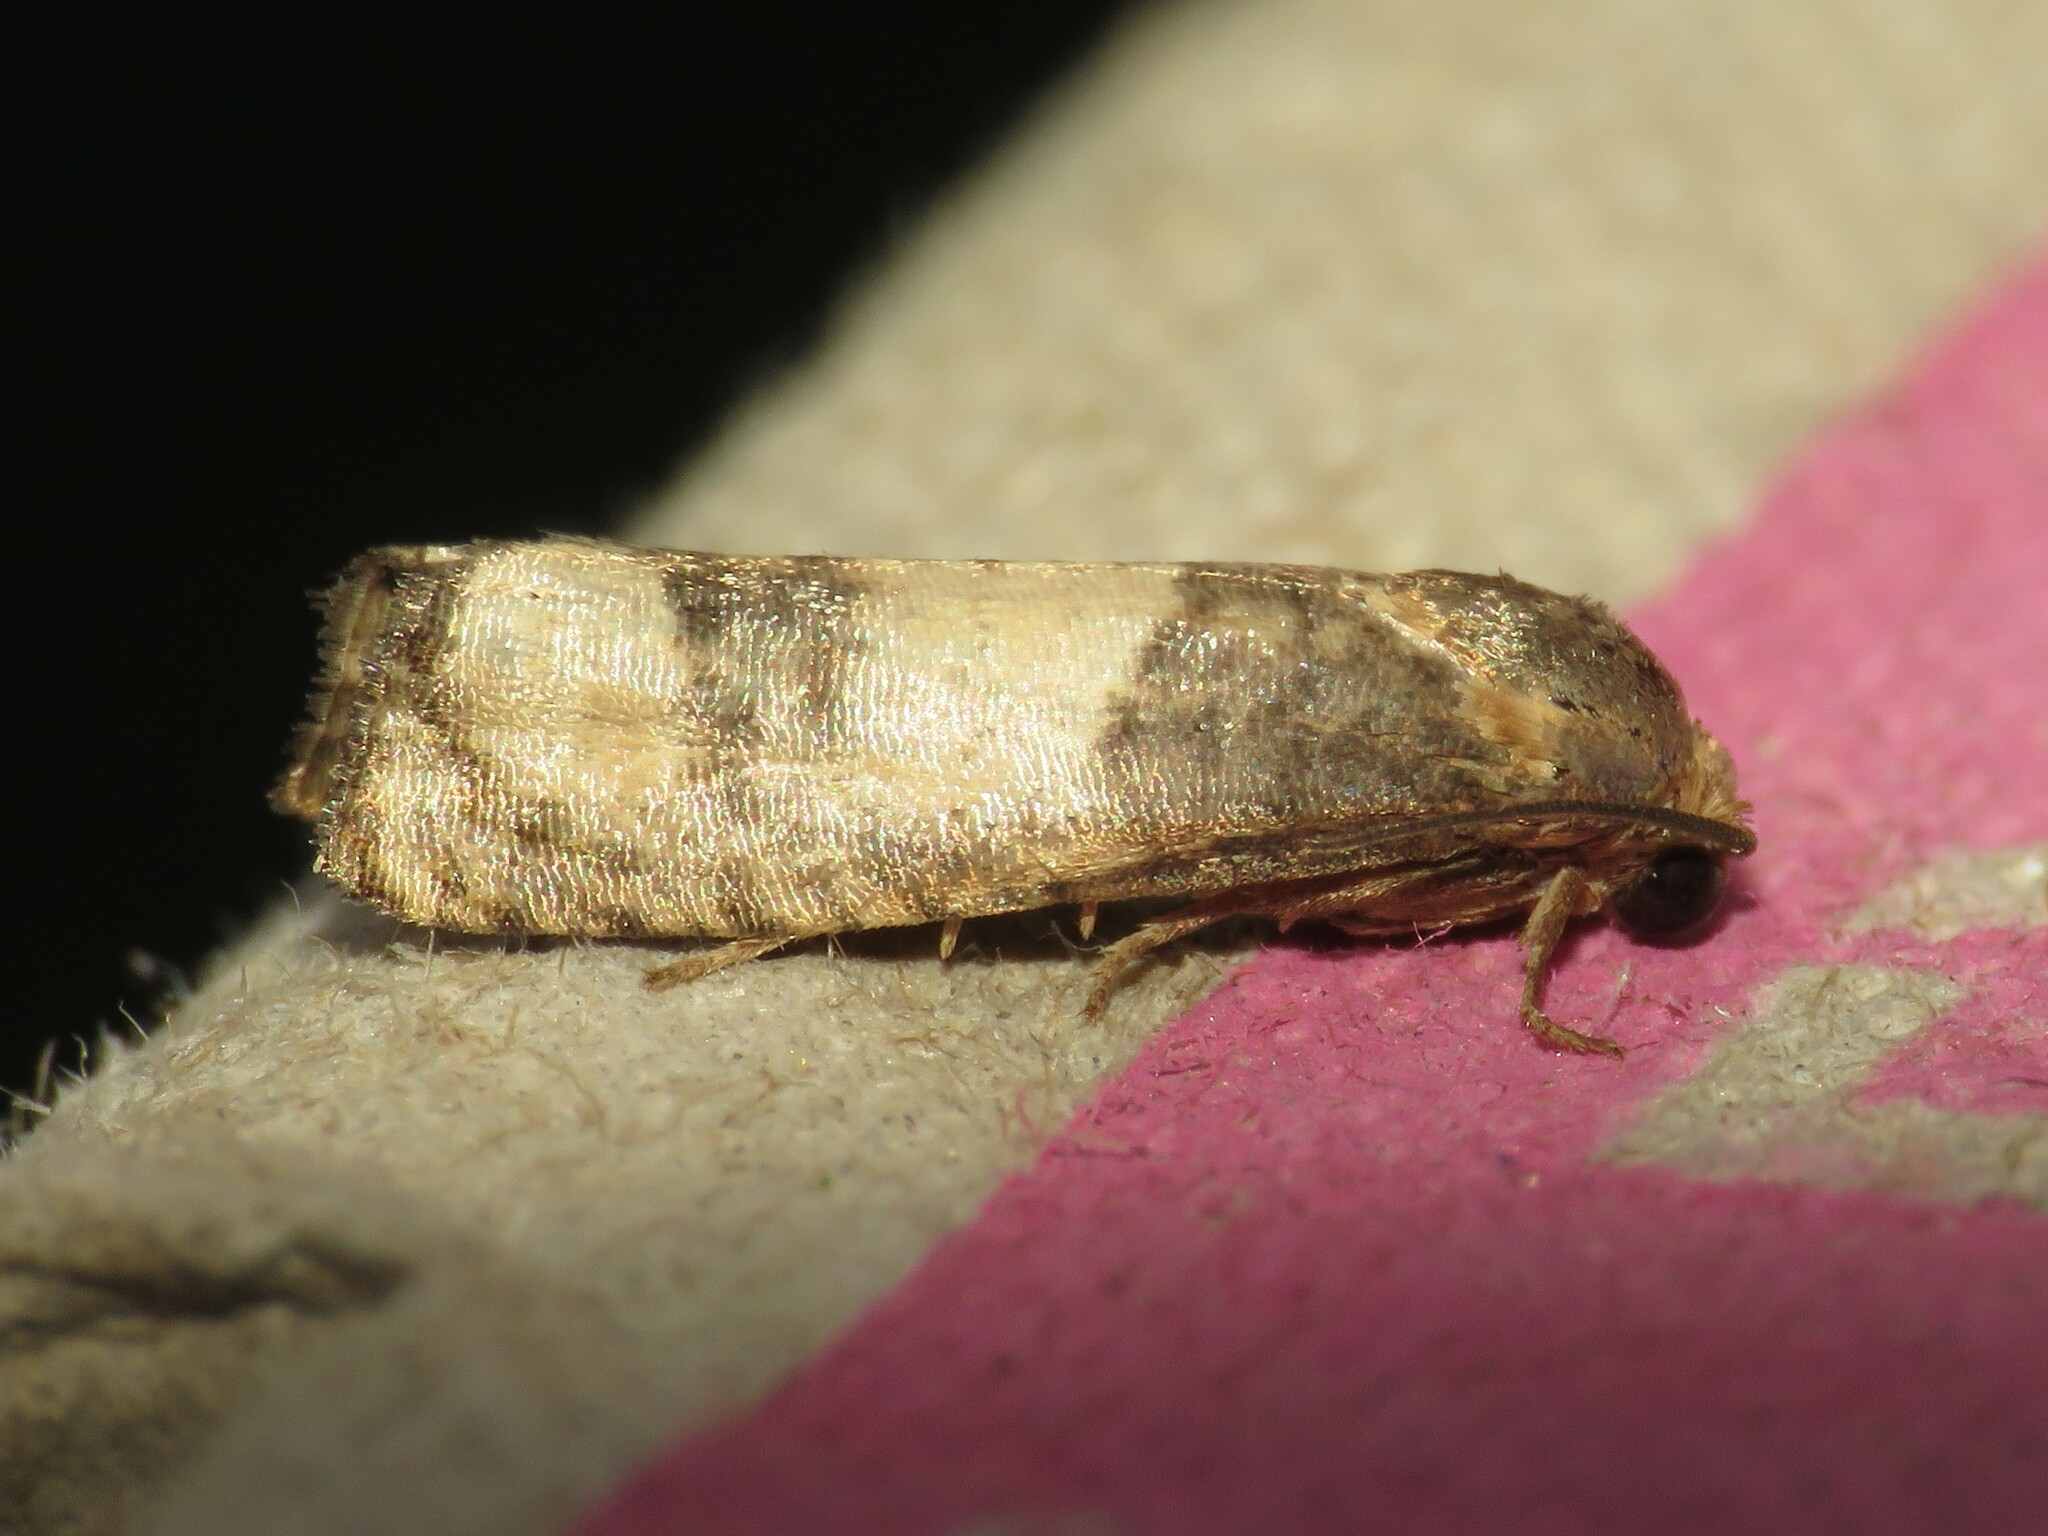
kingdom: Animalia
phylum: Arthropoda
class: Insecta
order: Lepidoptera
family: Tortricidae
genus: Epiblema
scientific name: Epiblema desertana
